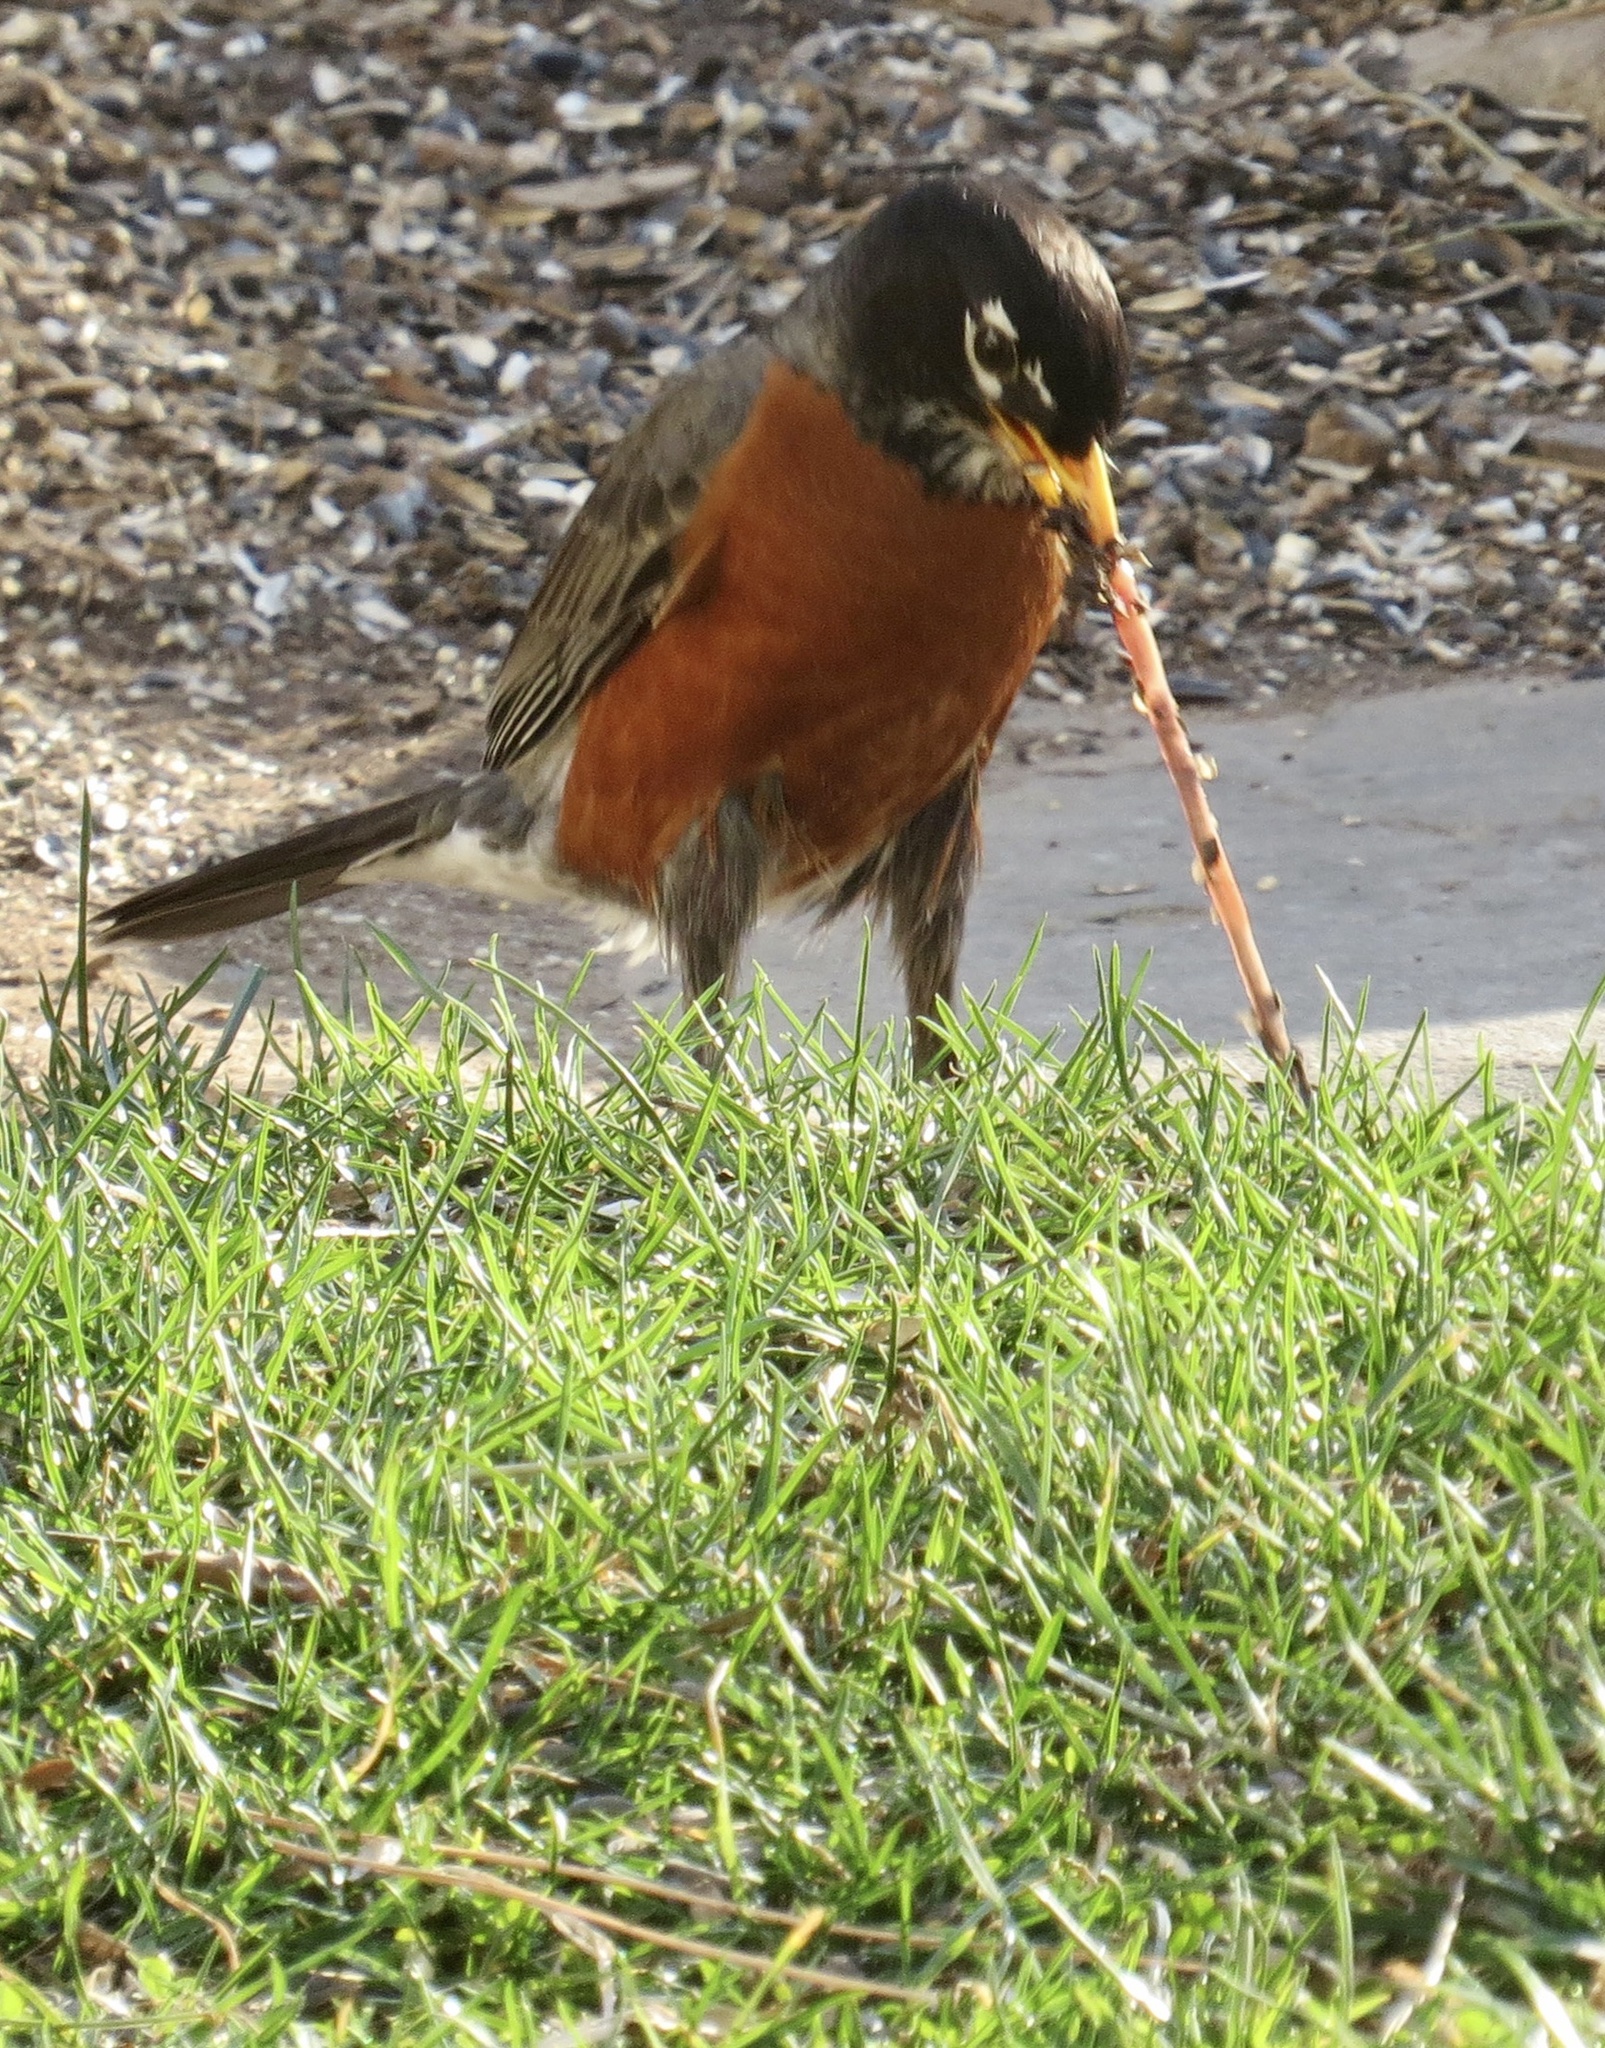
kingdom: Animalia
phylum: Chordata
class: Aves
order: Passeriformes
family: Turdidae
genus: Turdus
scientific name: Turdus migratorius
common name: American robin
